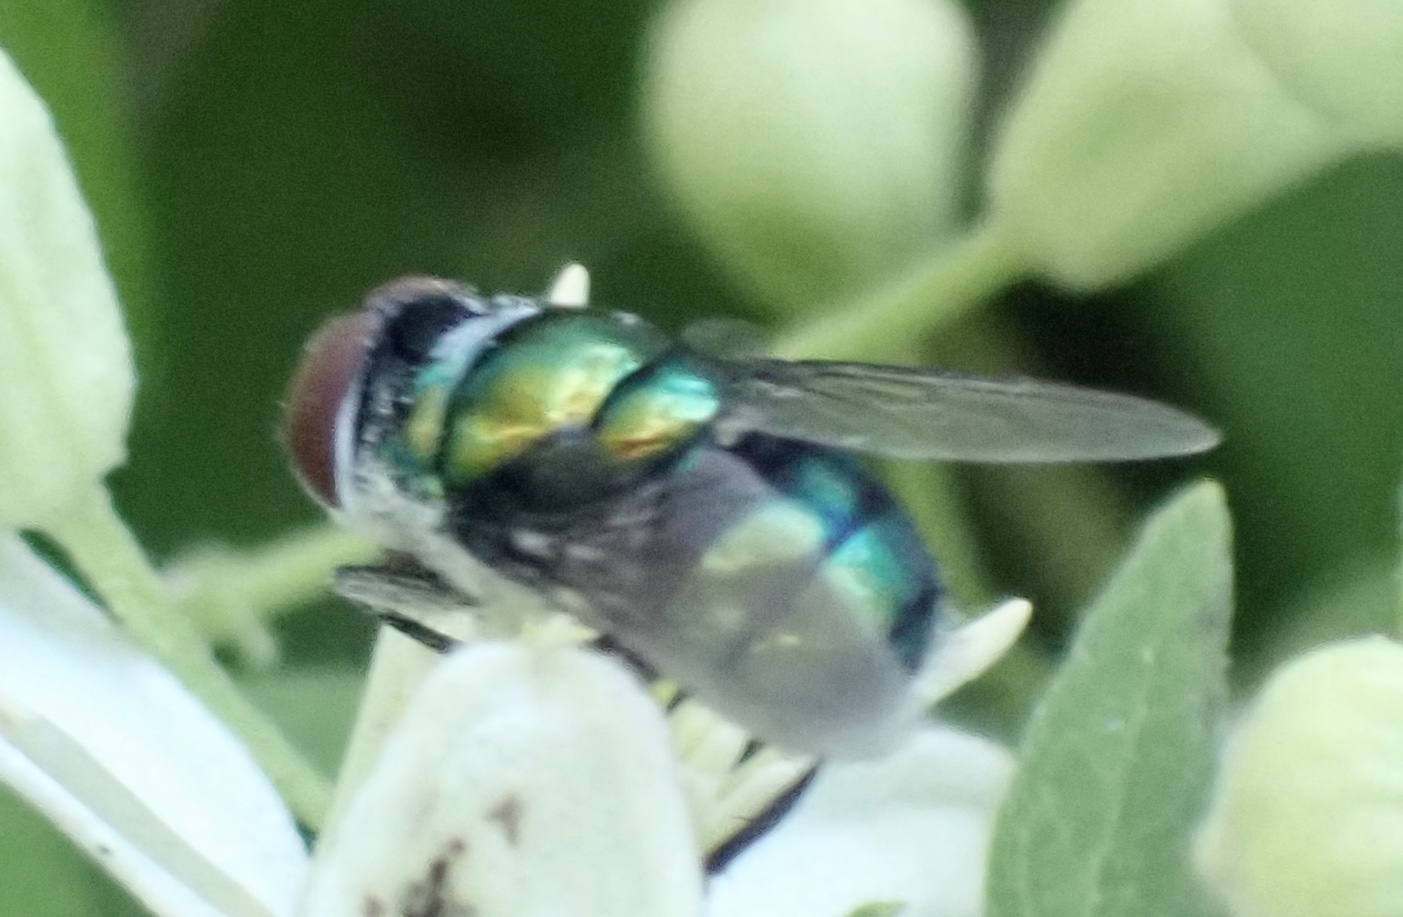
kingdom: Animalia
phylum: Arthropoda
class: Insecta
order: Diptera
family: Calliphoridae
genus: Chrysomya
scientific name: Chrysomya rufifacies
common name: Blow fly
